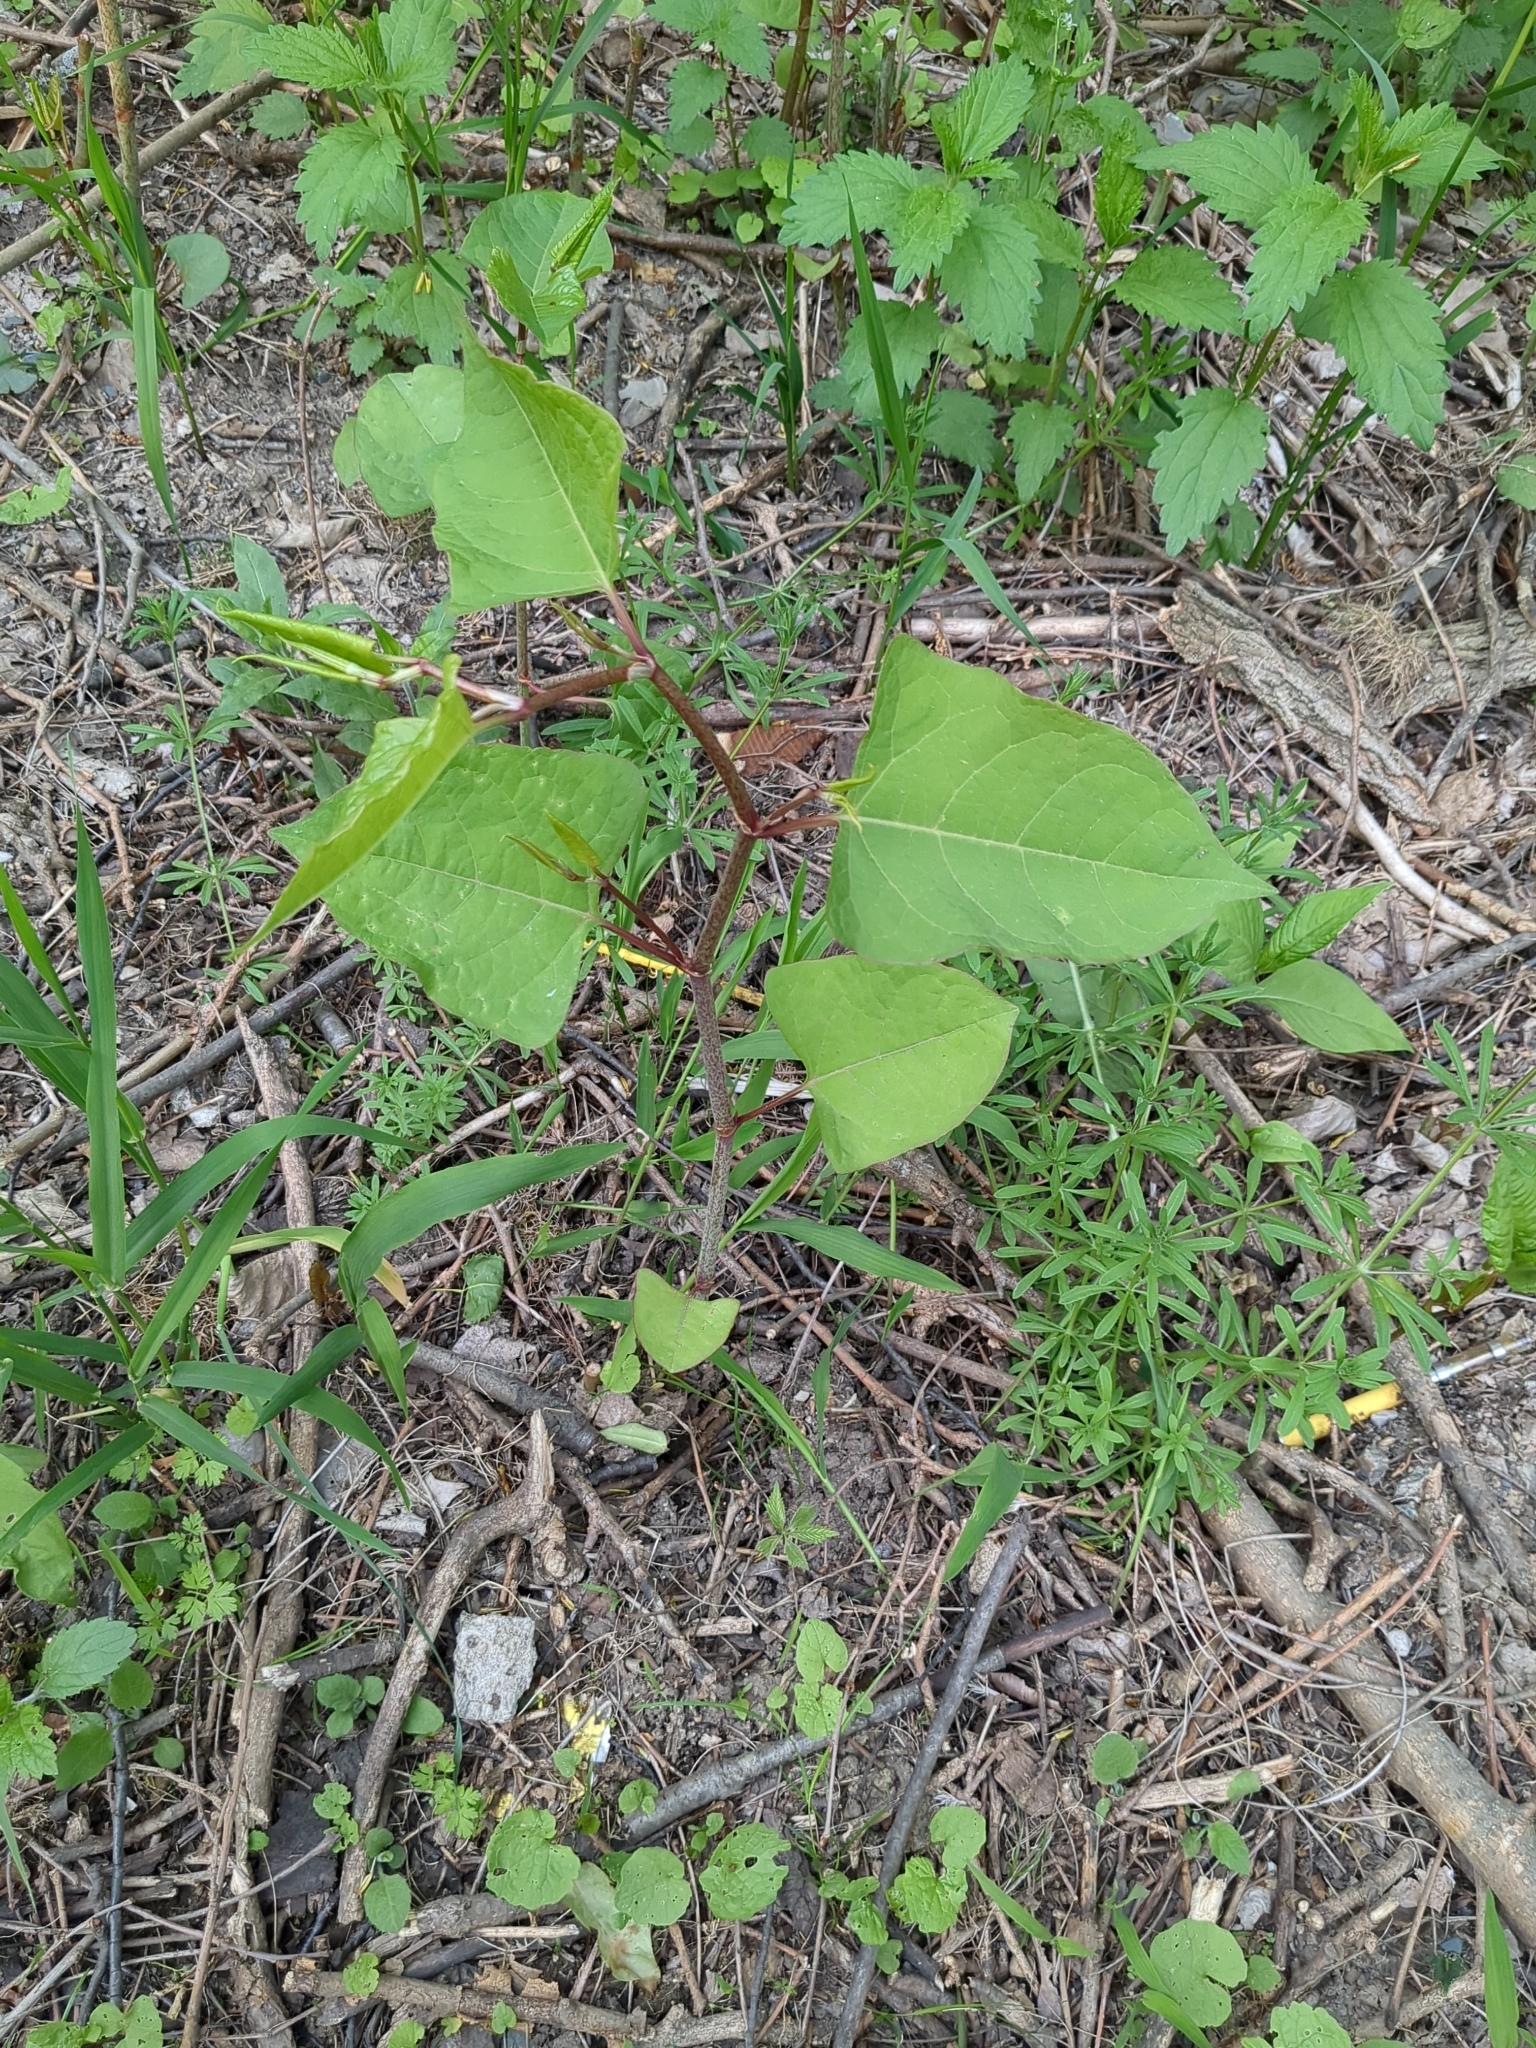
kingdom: Plantae
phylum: Tracheophyta
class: Magnoliopsida
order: Caryophyllales
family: Polygonaceae
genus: Reynoutria
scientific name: Reynoutria japonica
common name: Japanese knotweed
